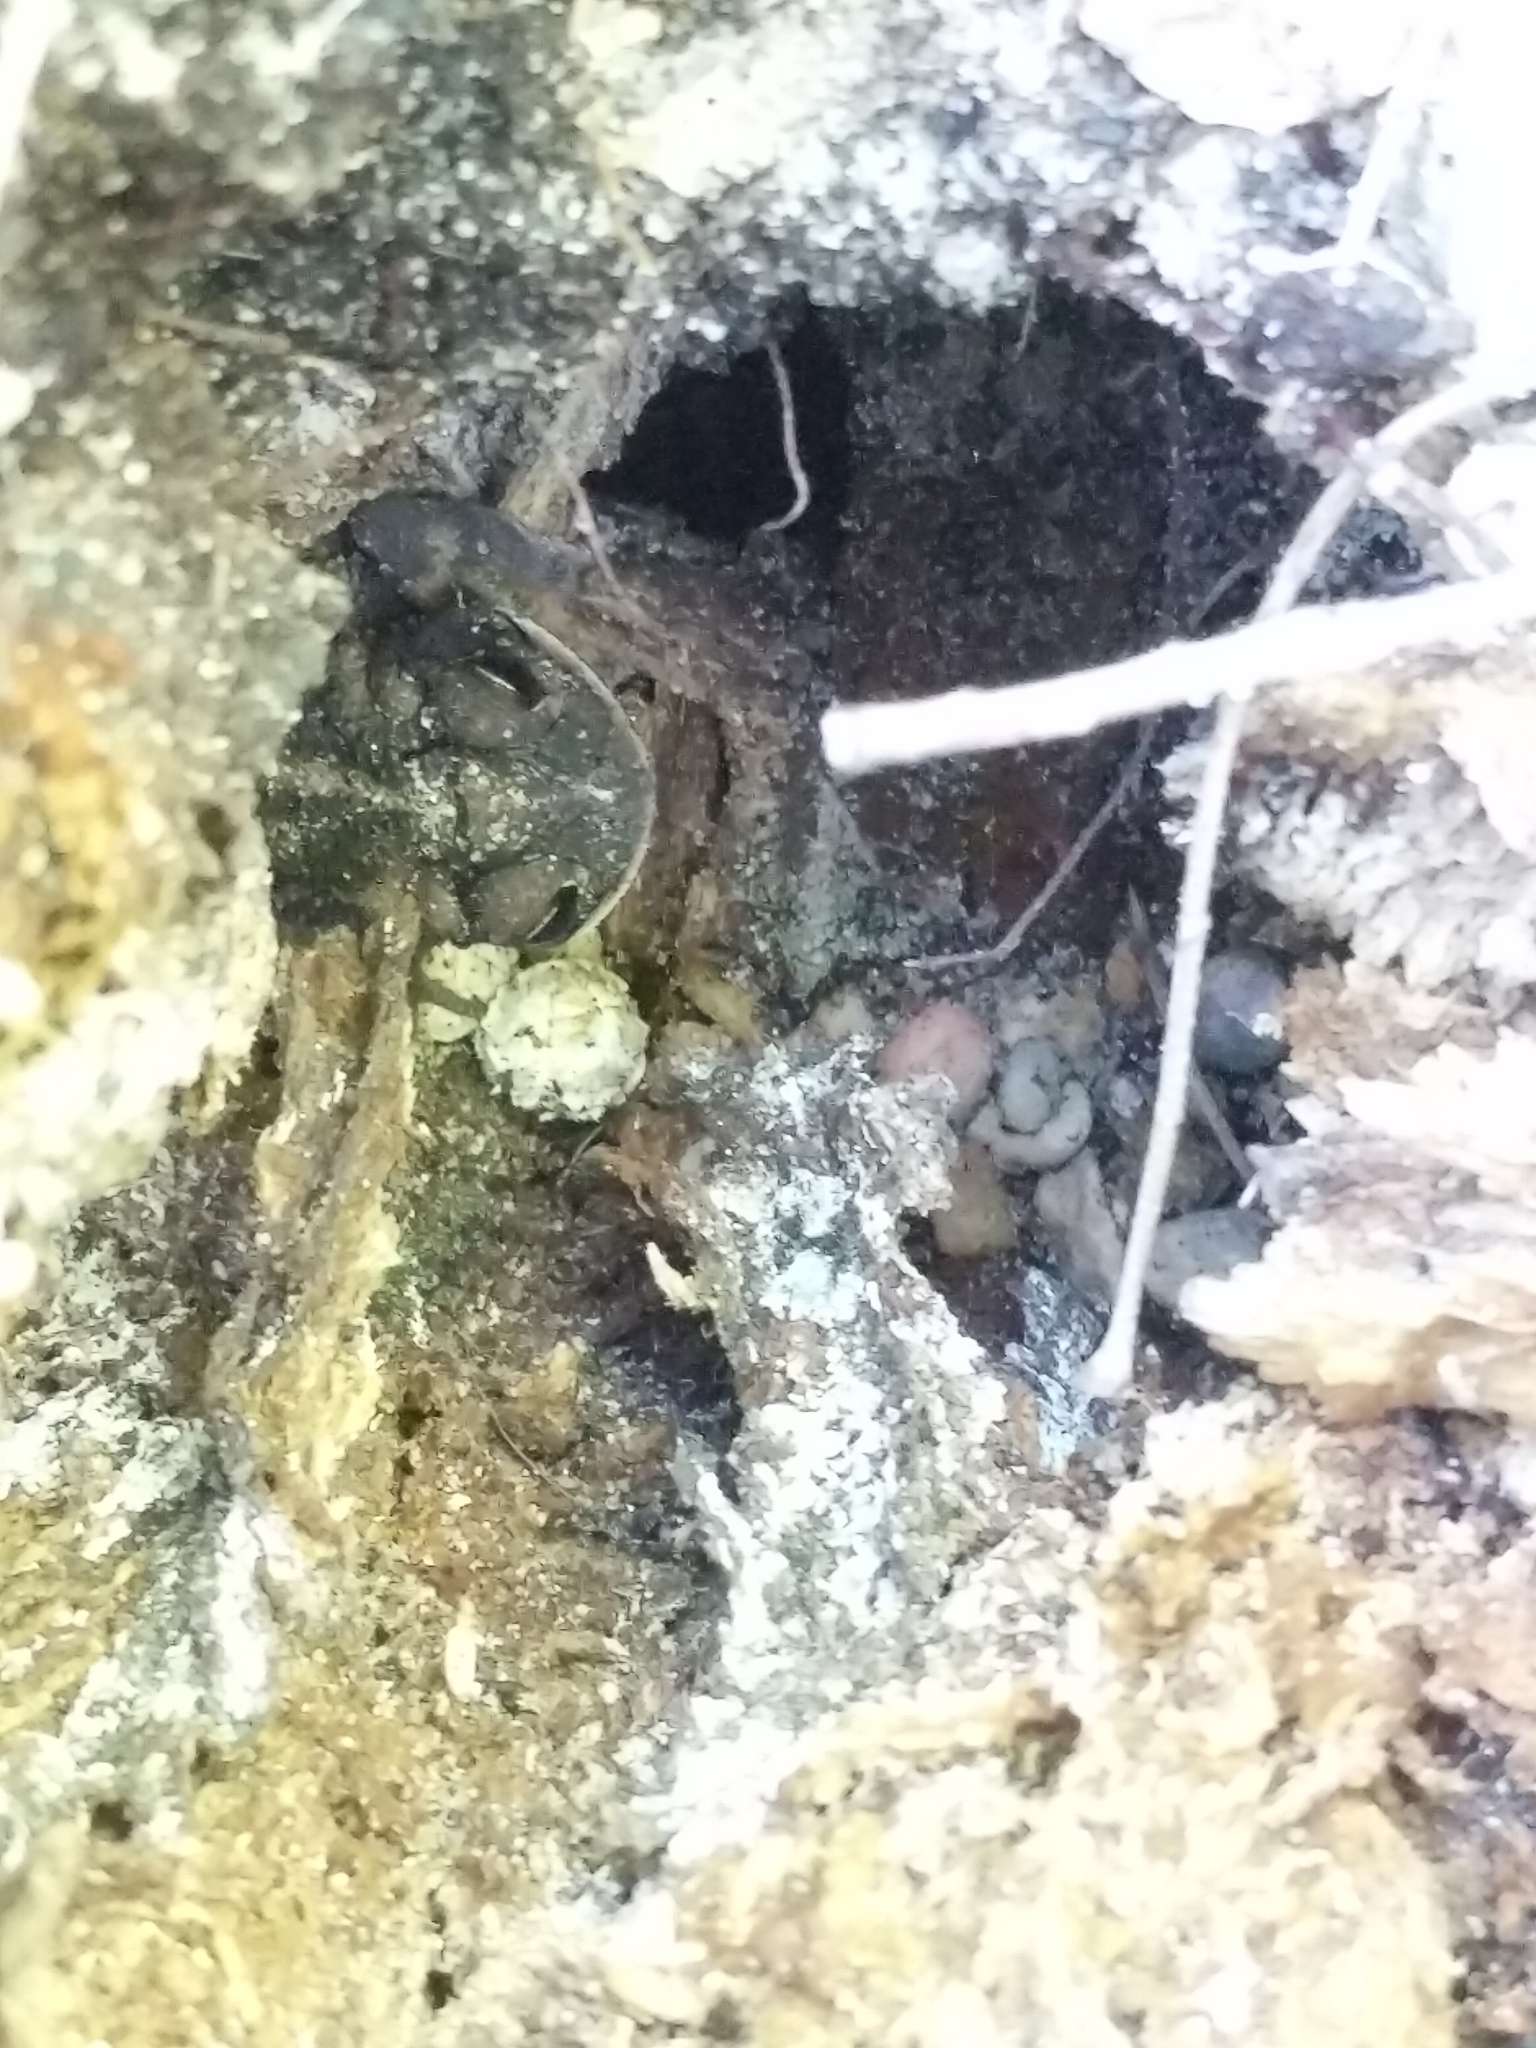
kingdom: Animalia
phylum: Chordata
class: Amphibia
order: Anura
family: Bufonidae
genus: Incilius
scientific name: Incilius nebulifer
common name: Gulf coast toad
